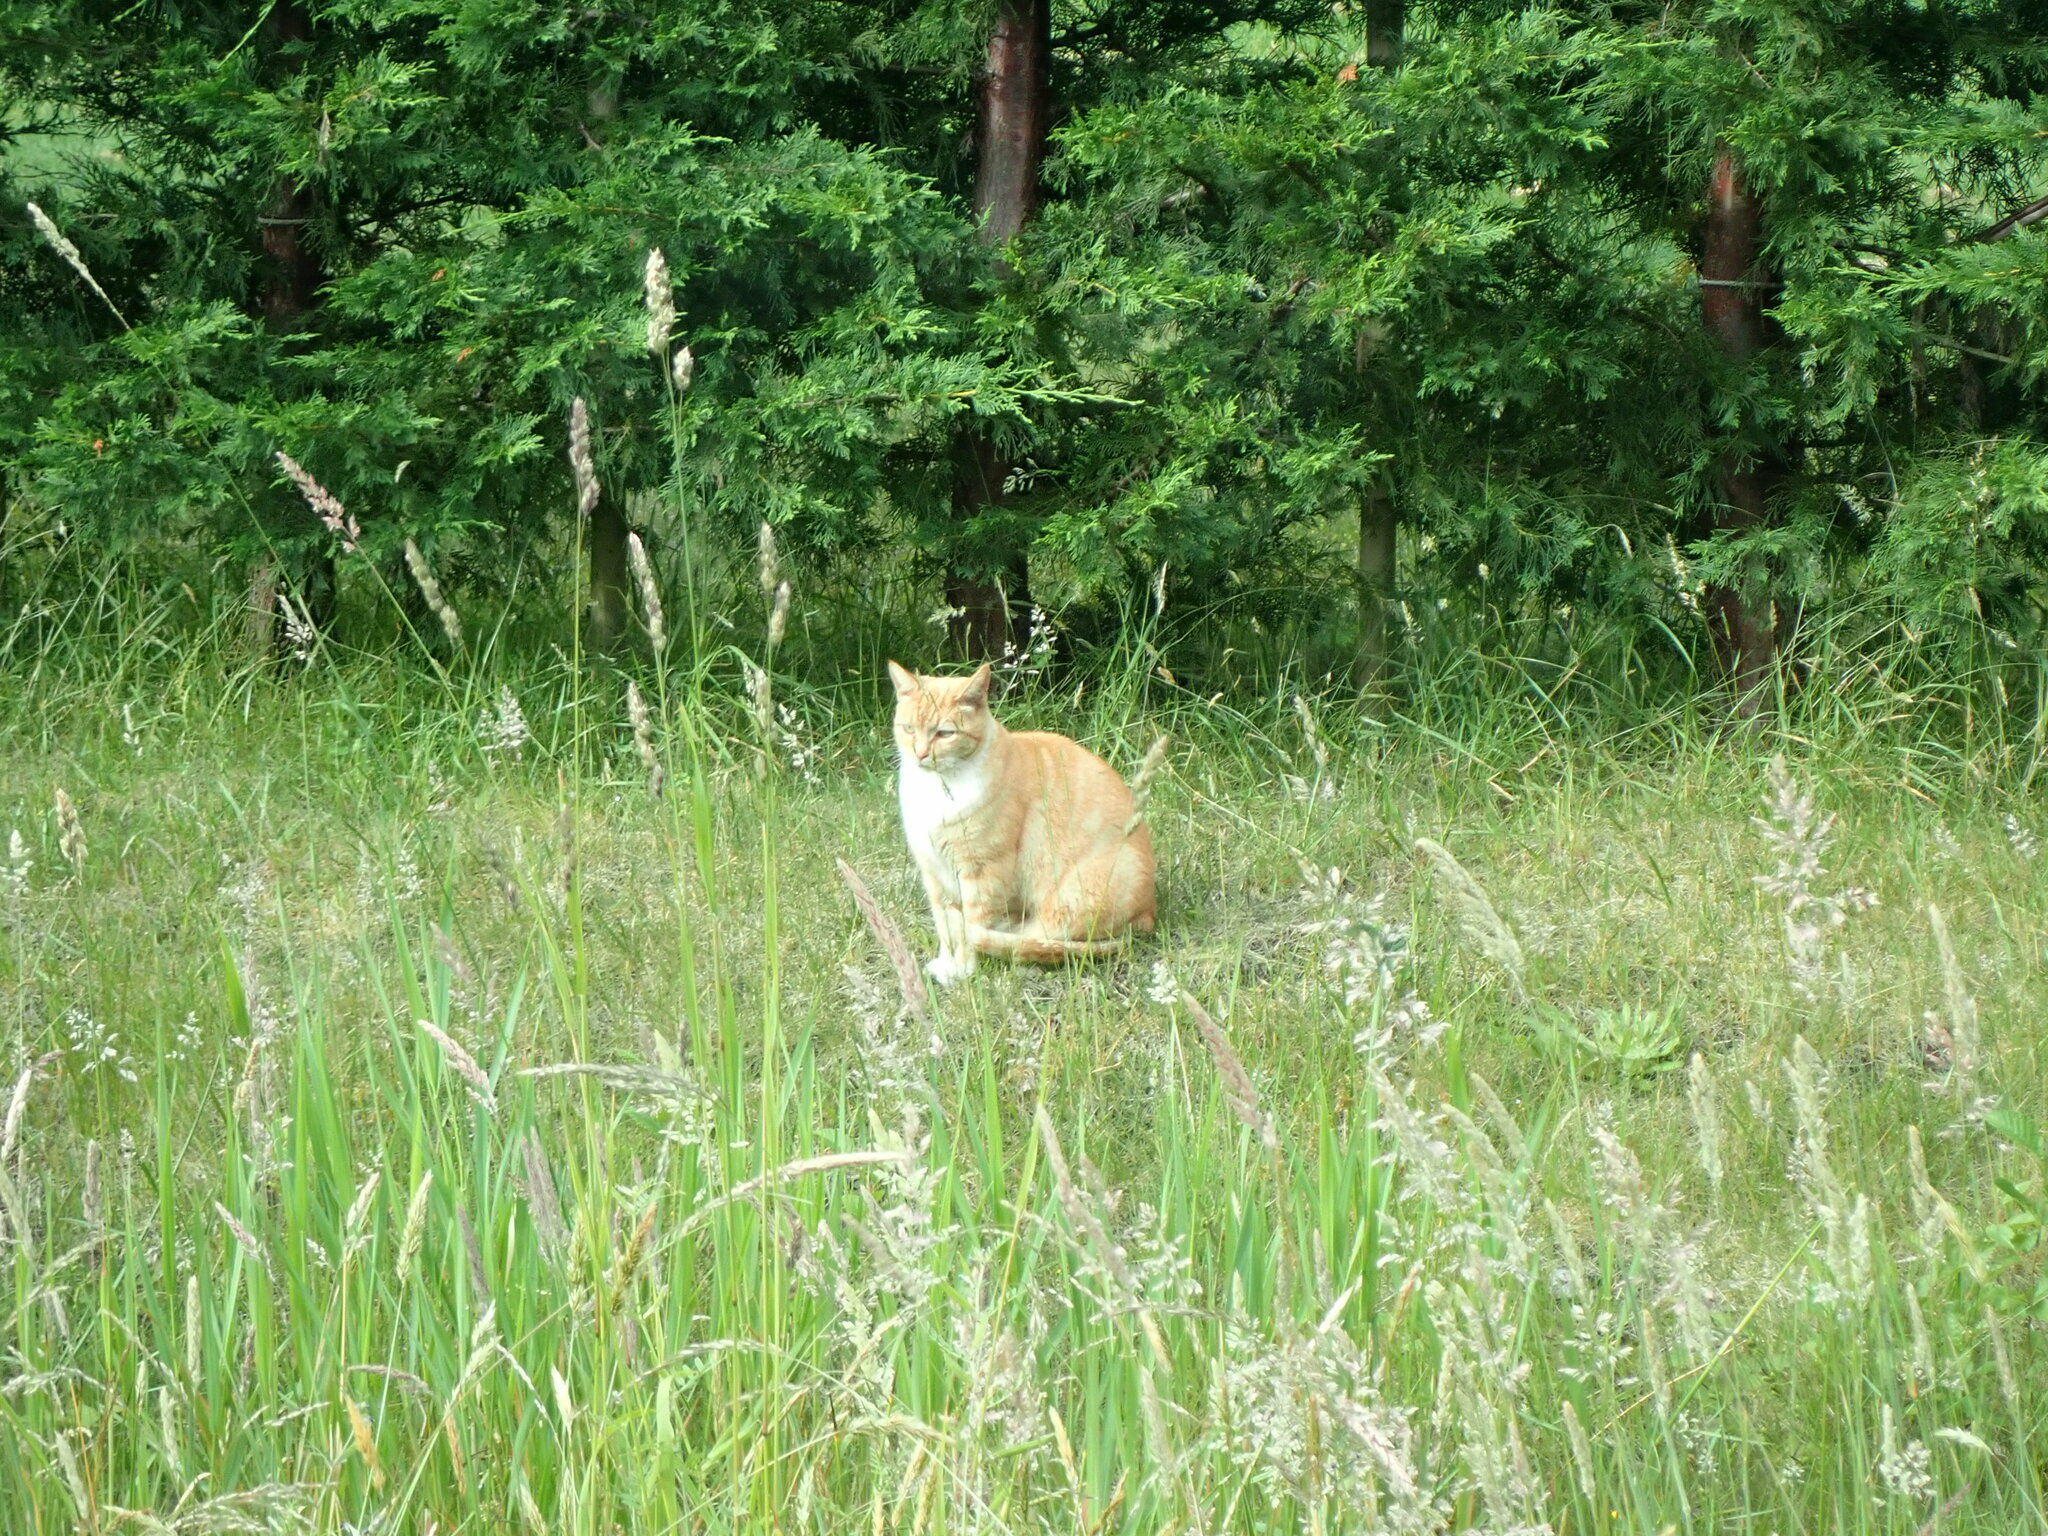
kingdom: Animalia
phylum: Chordata
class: Mammalia
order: Carnivora
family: Felidae
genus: Felis
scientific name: Felis catus
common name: Domestic cat
